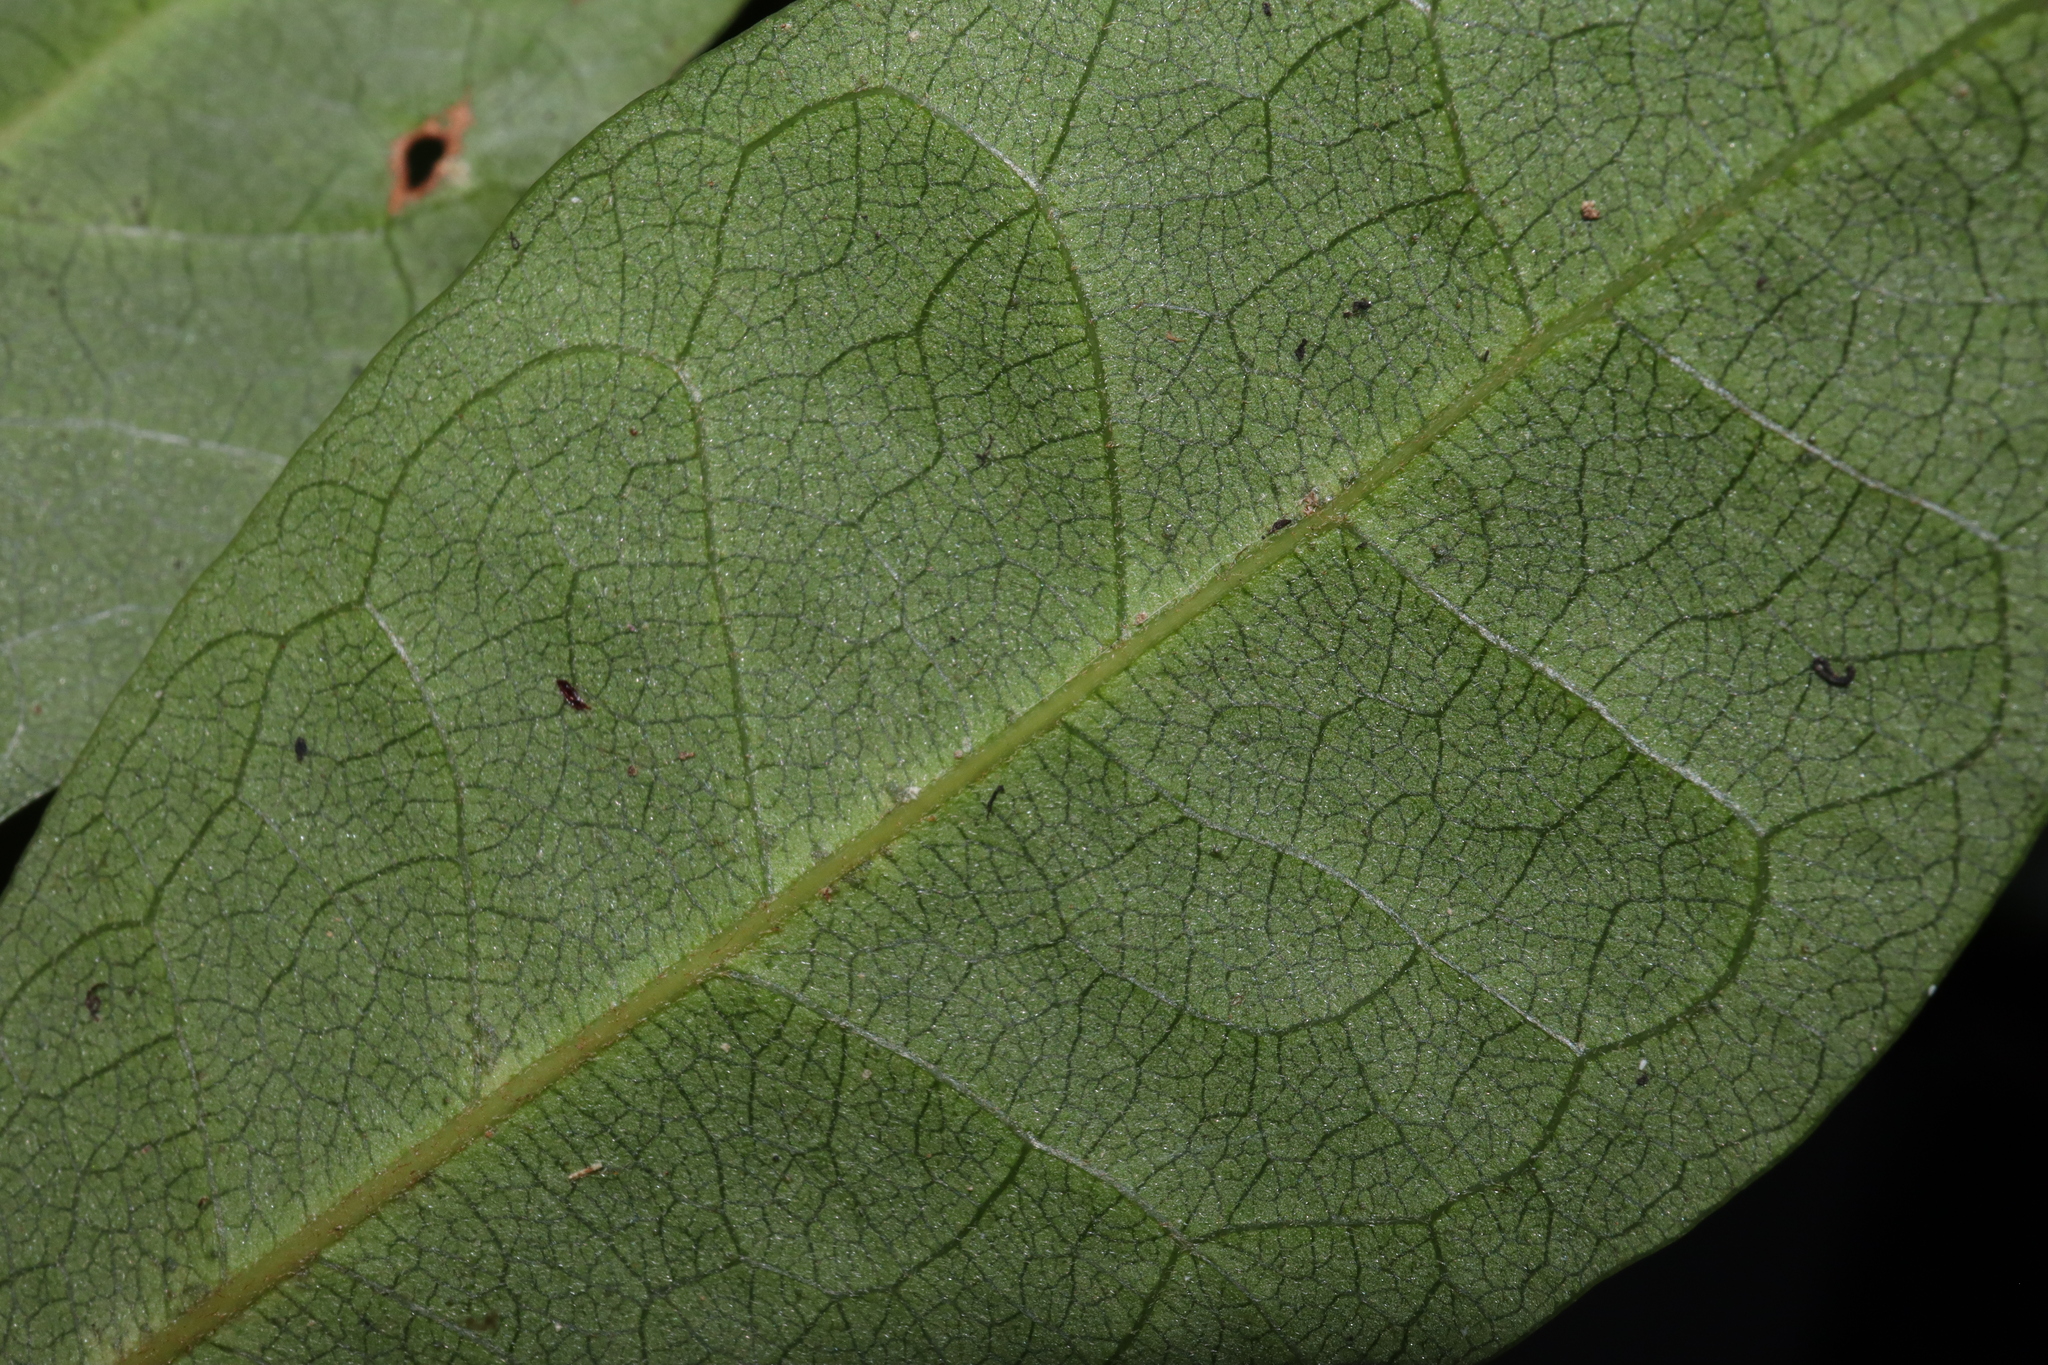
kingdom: Plantae
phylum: Tracheophyta
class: Magnoliopsida
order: Malpighiales
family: Phyllanthaceae
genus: Cleistanthus
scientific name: Cleistanthus cunninghamii
